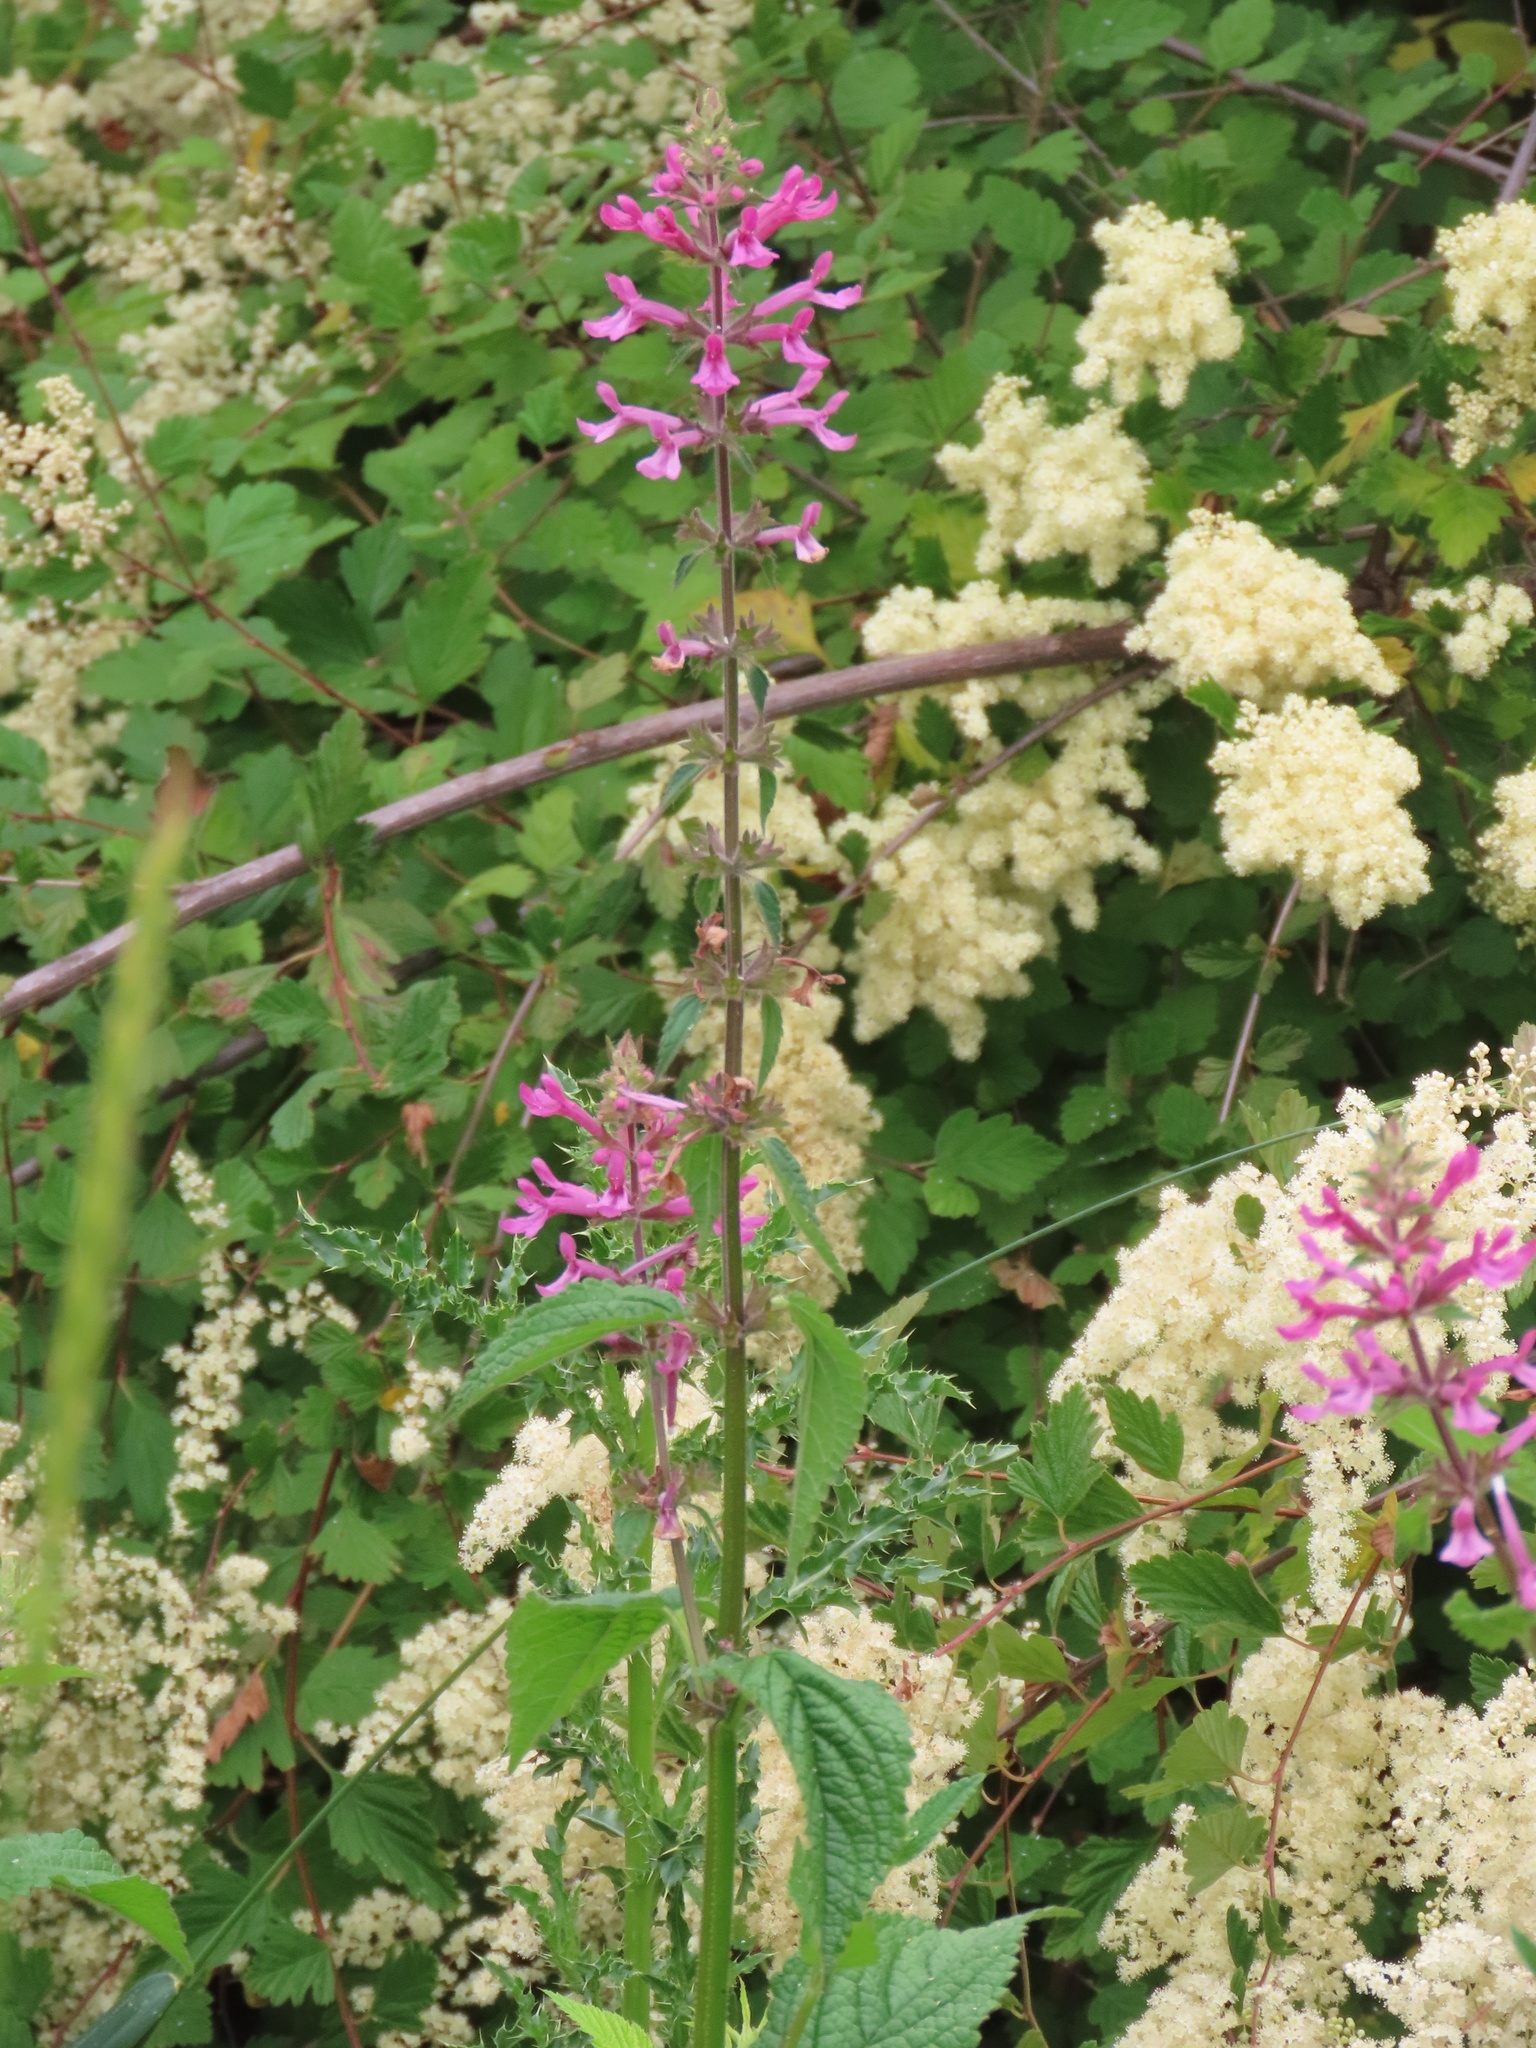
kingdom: Plantae
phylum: Tracheophyta
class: Magnoliopsida
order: Lamiales
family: Lamiaceae
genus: Stachys
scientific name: Stachys chamissonis
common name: Coastal hedge-nettle
